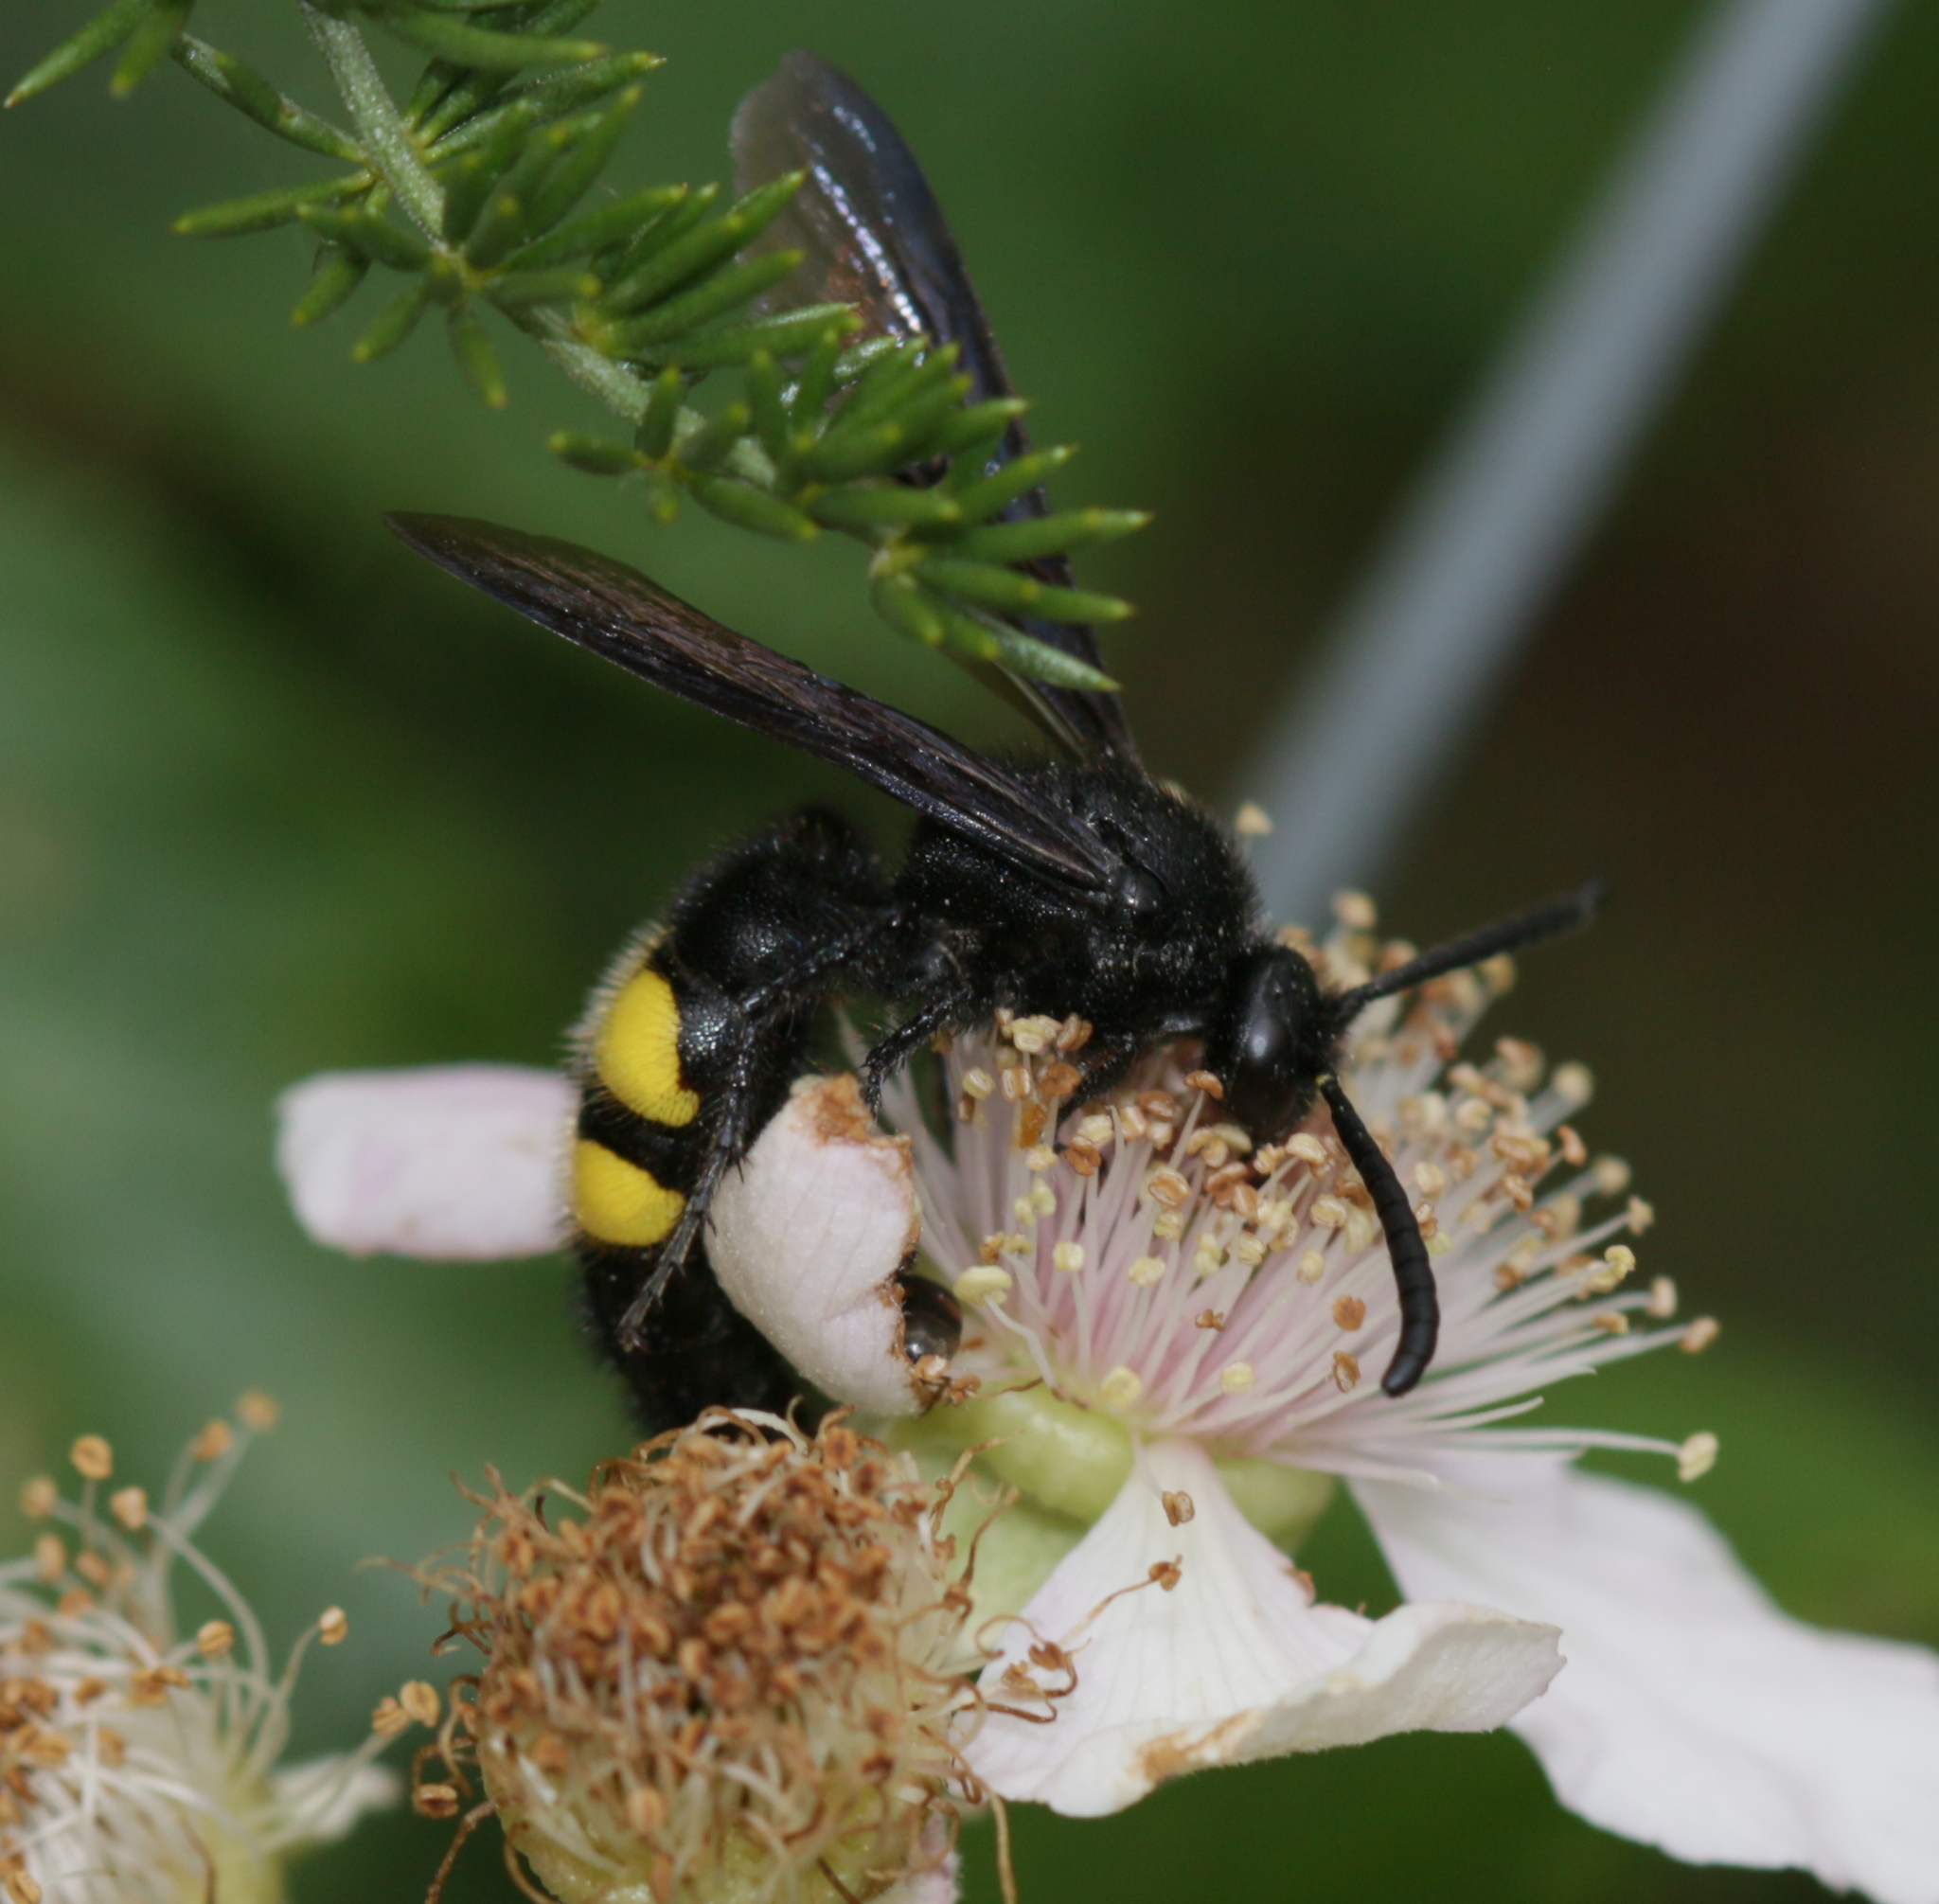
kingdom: Animalia
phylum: Arthropoda
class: Insecta
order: Hymenoptera
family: Scoliidae
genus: Scolia
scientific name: Scolia hirta
